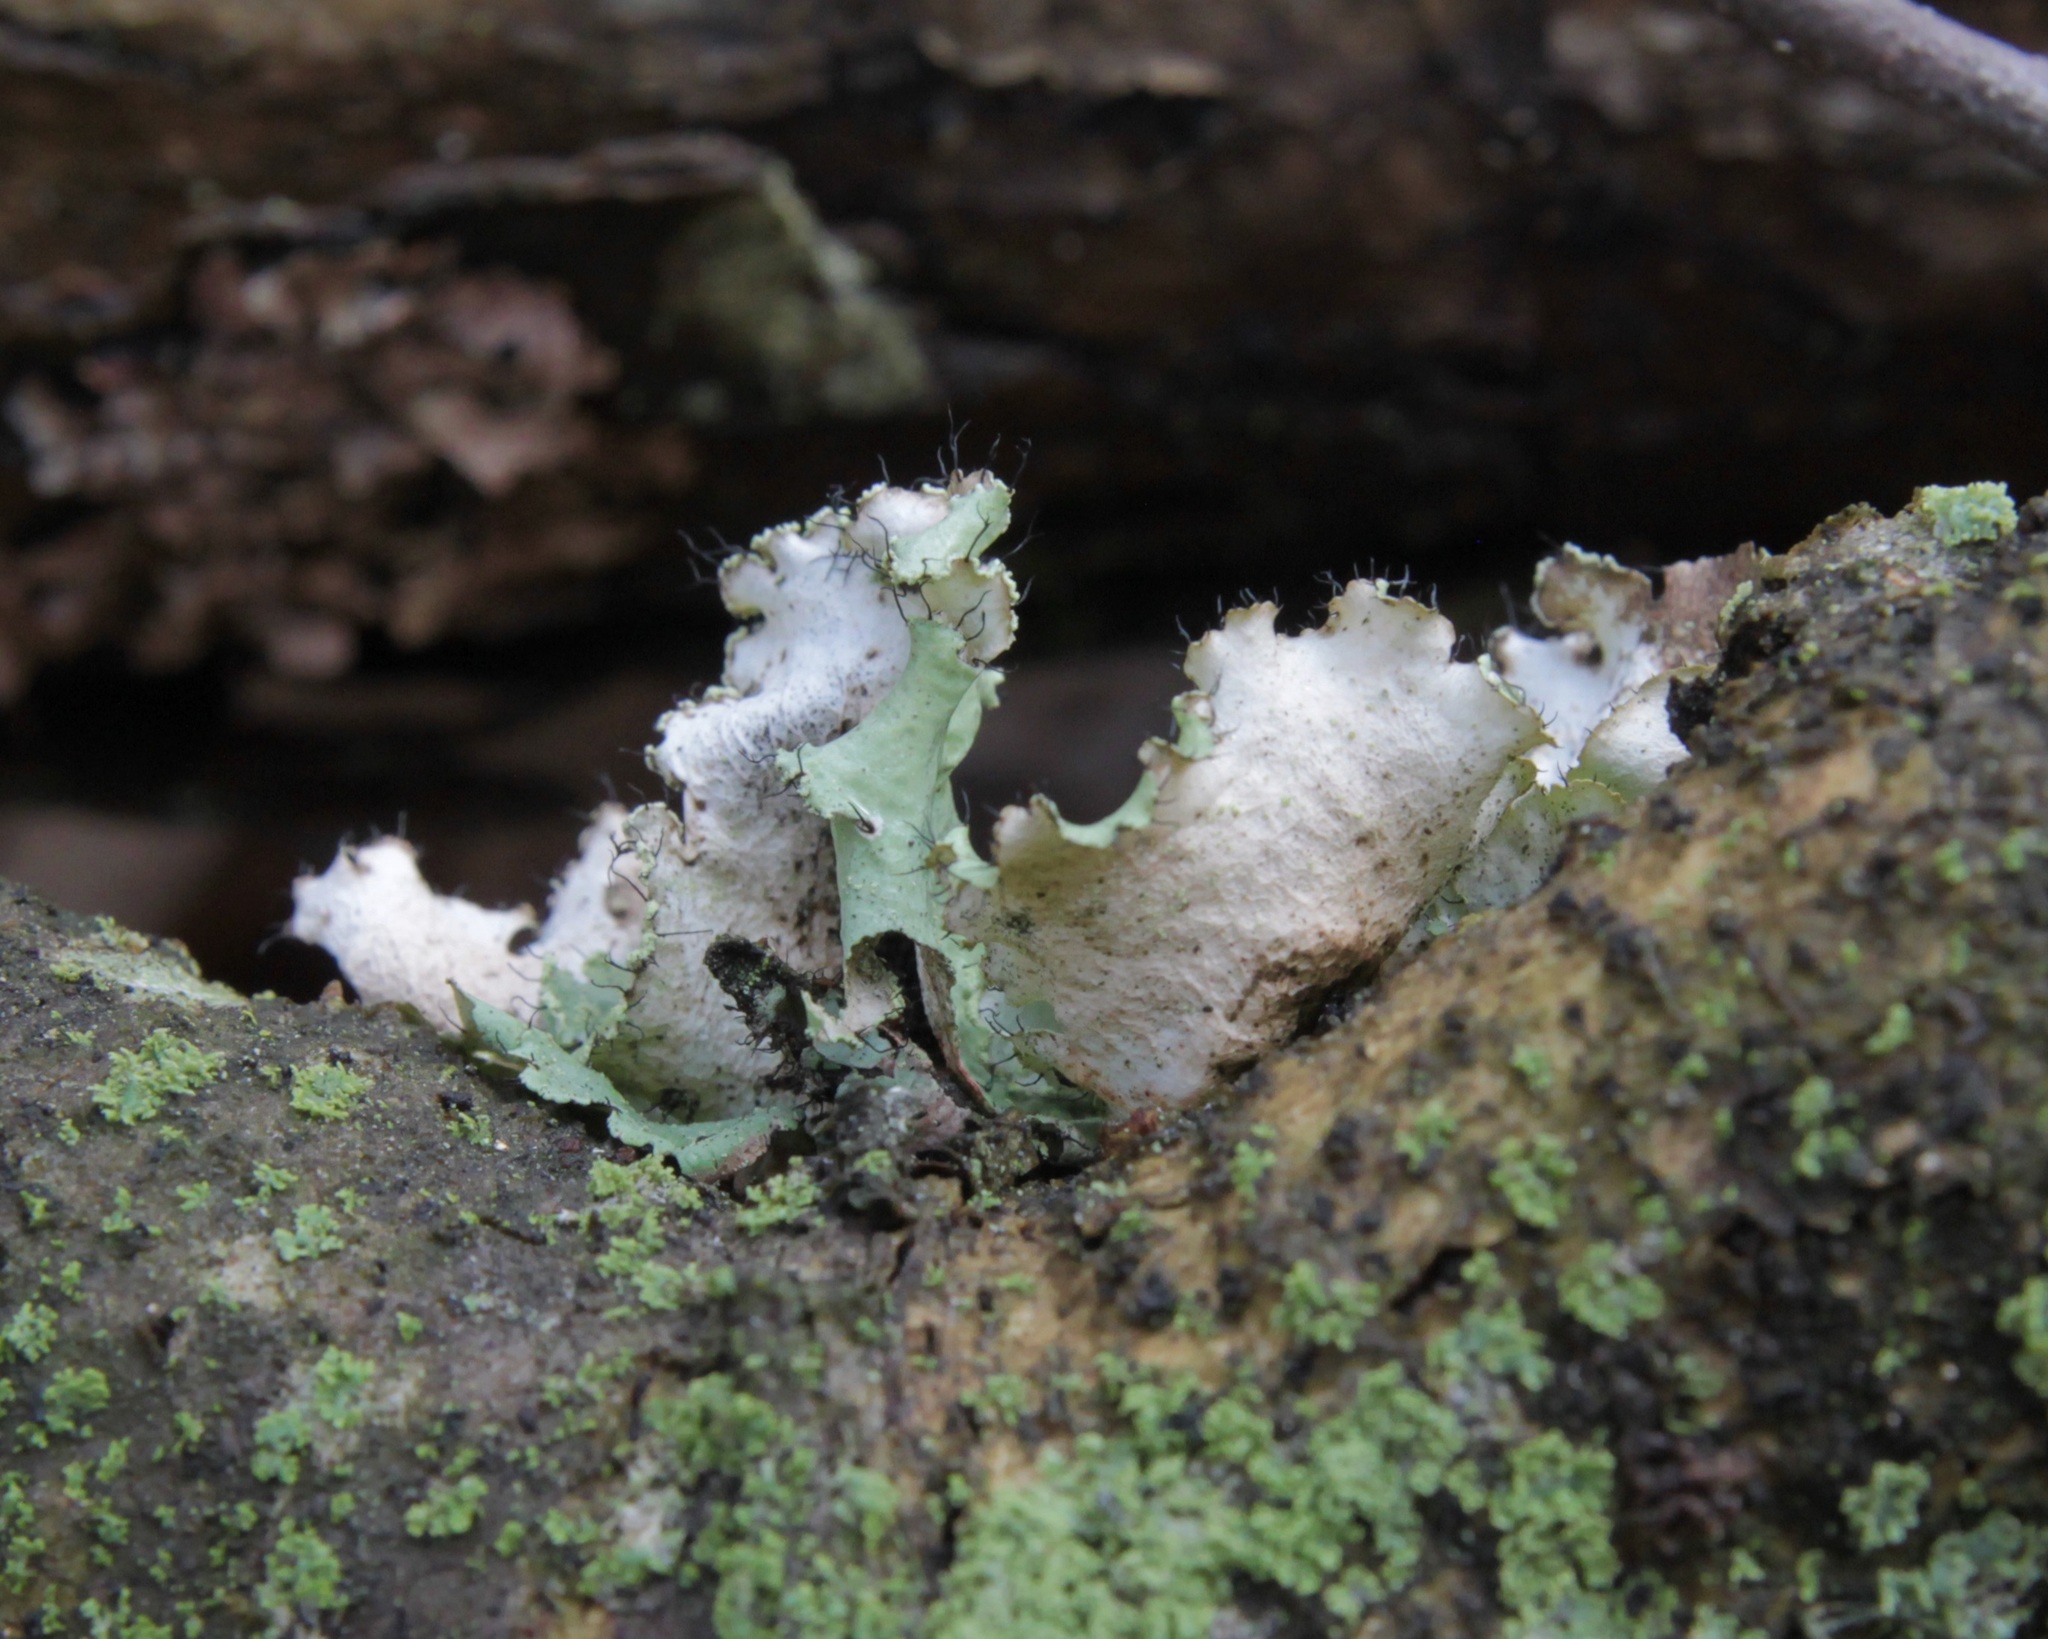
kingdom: Fungi
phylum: Ascomycota
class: Lecanoromycetes
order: Lecanorales
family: Parmeliaceae
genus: Parmotrema
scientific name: Parmotrema hypotropum
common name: Powdered ruffle lichen
